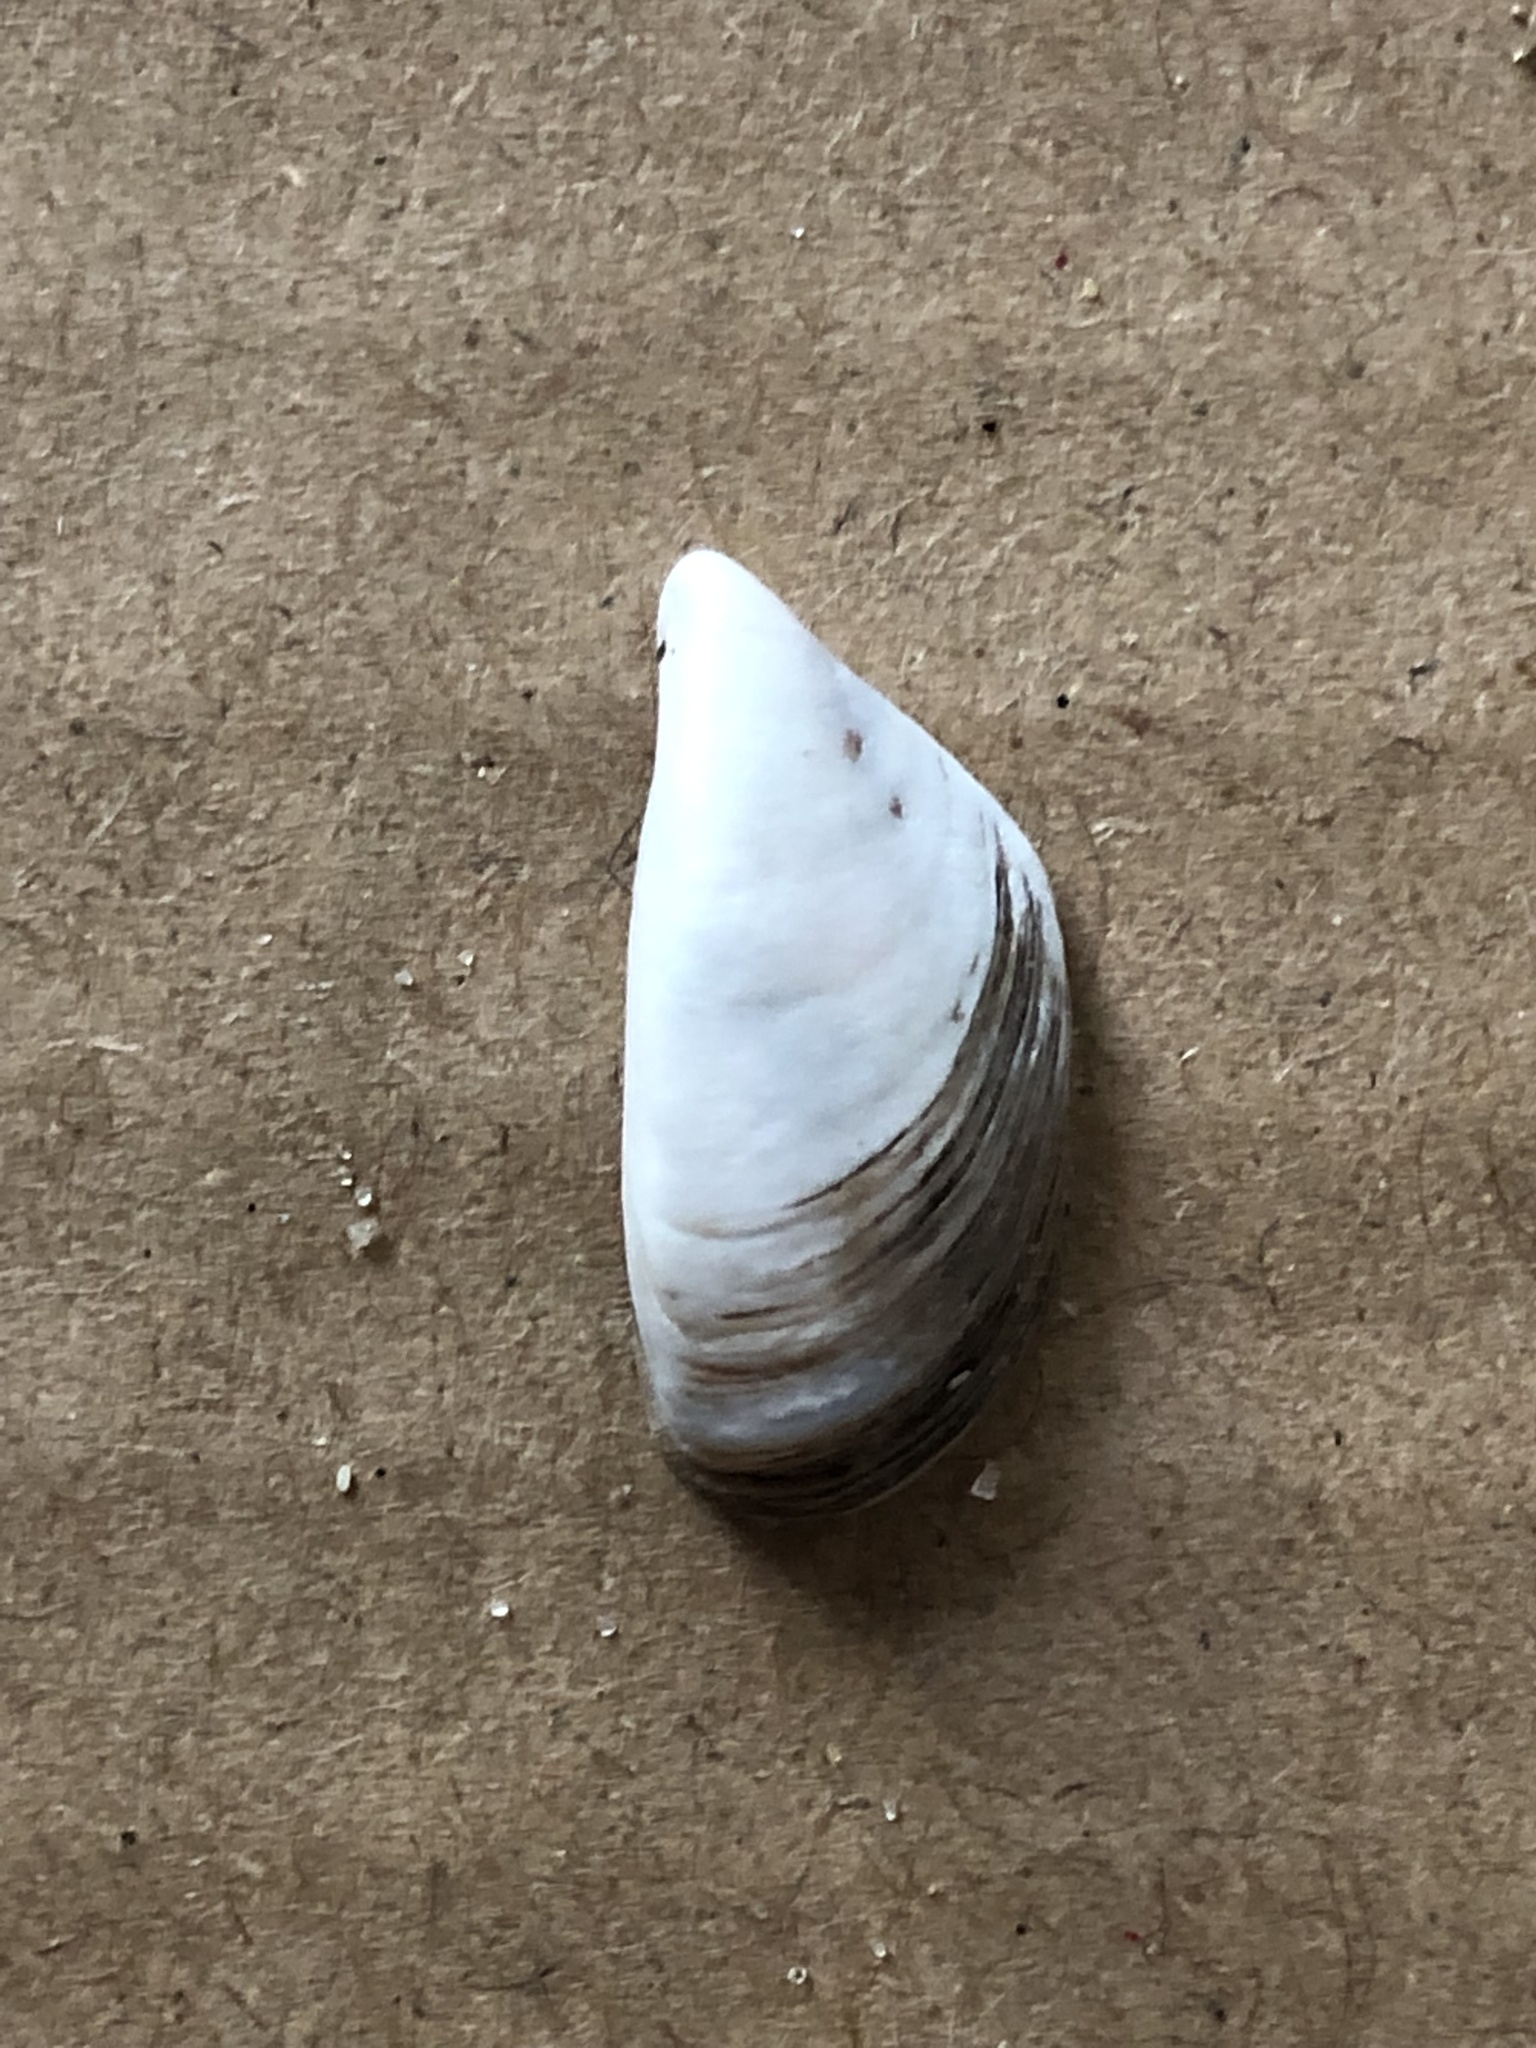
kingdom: Animalia
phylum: Mollusca
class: Bivalvia
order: Myida
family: Dreissenidae
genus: Dreissena
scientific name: Dreissena polymorpha
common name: Zebra mussel
